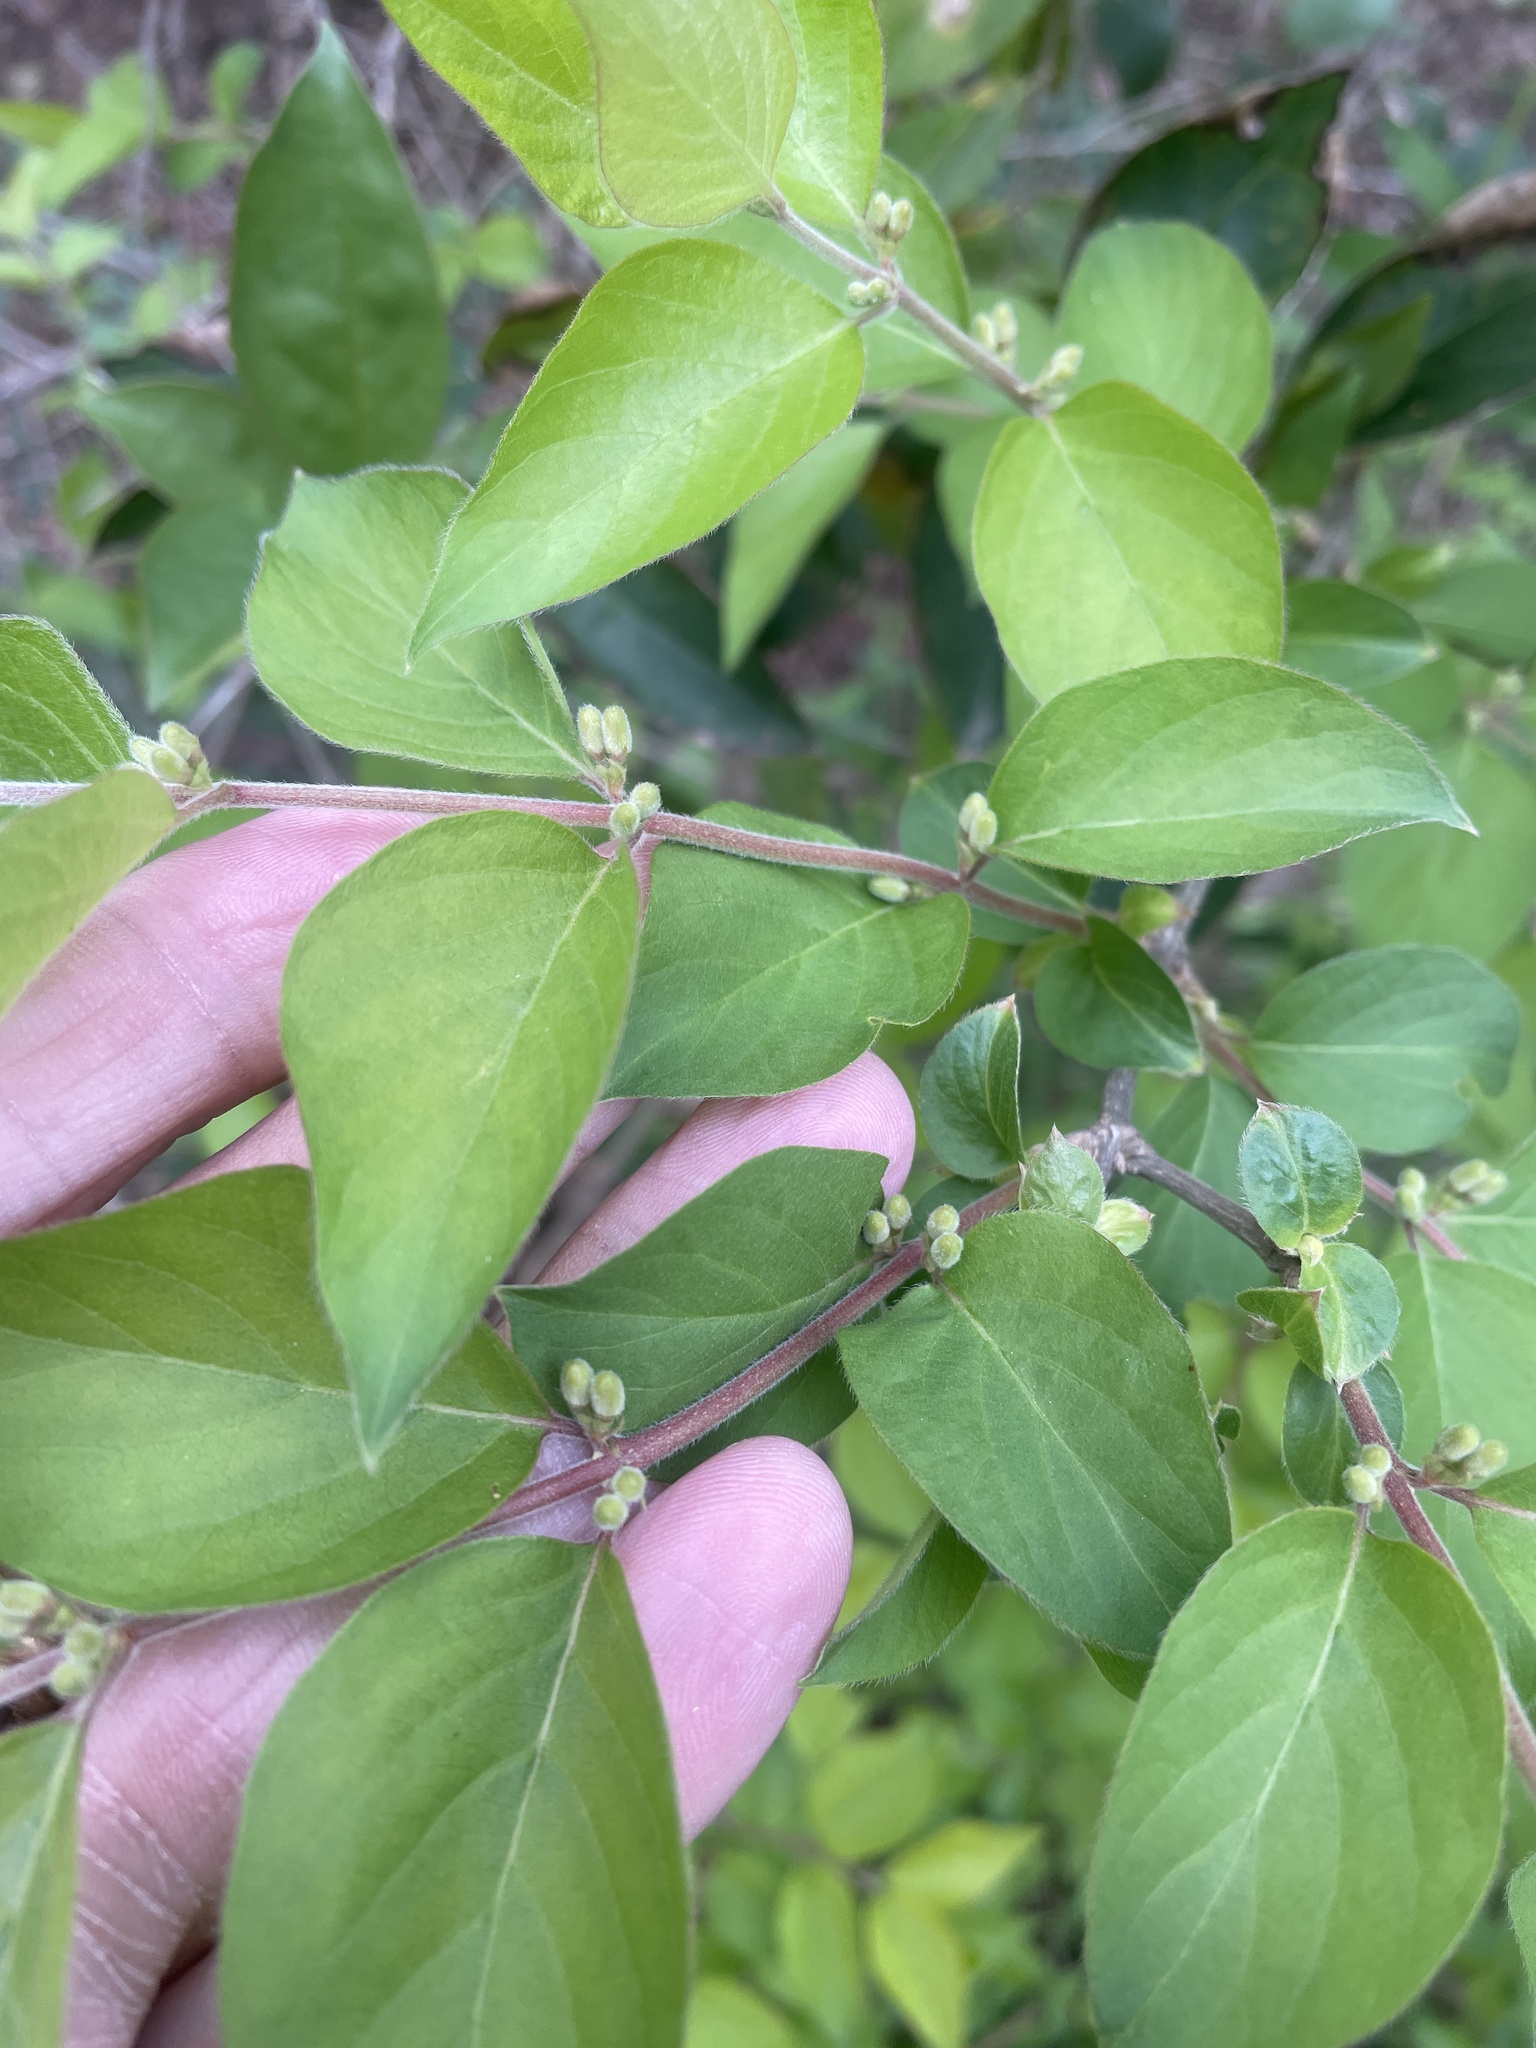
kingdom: Plantae
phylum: Tracheophyta
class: Magnoliopsida
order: Dipsacales
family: Caprifoliaceae
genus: Lonicera
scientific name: Lonicera maackii
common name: Amur honeysuckle
